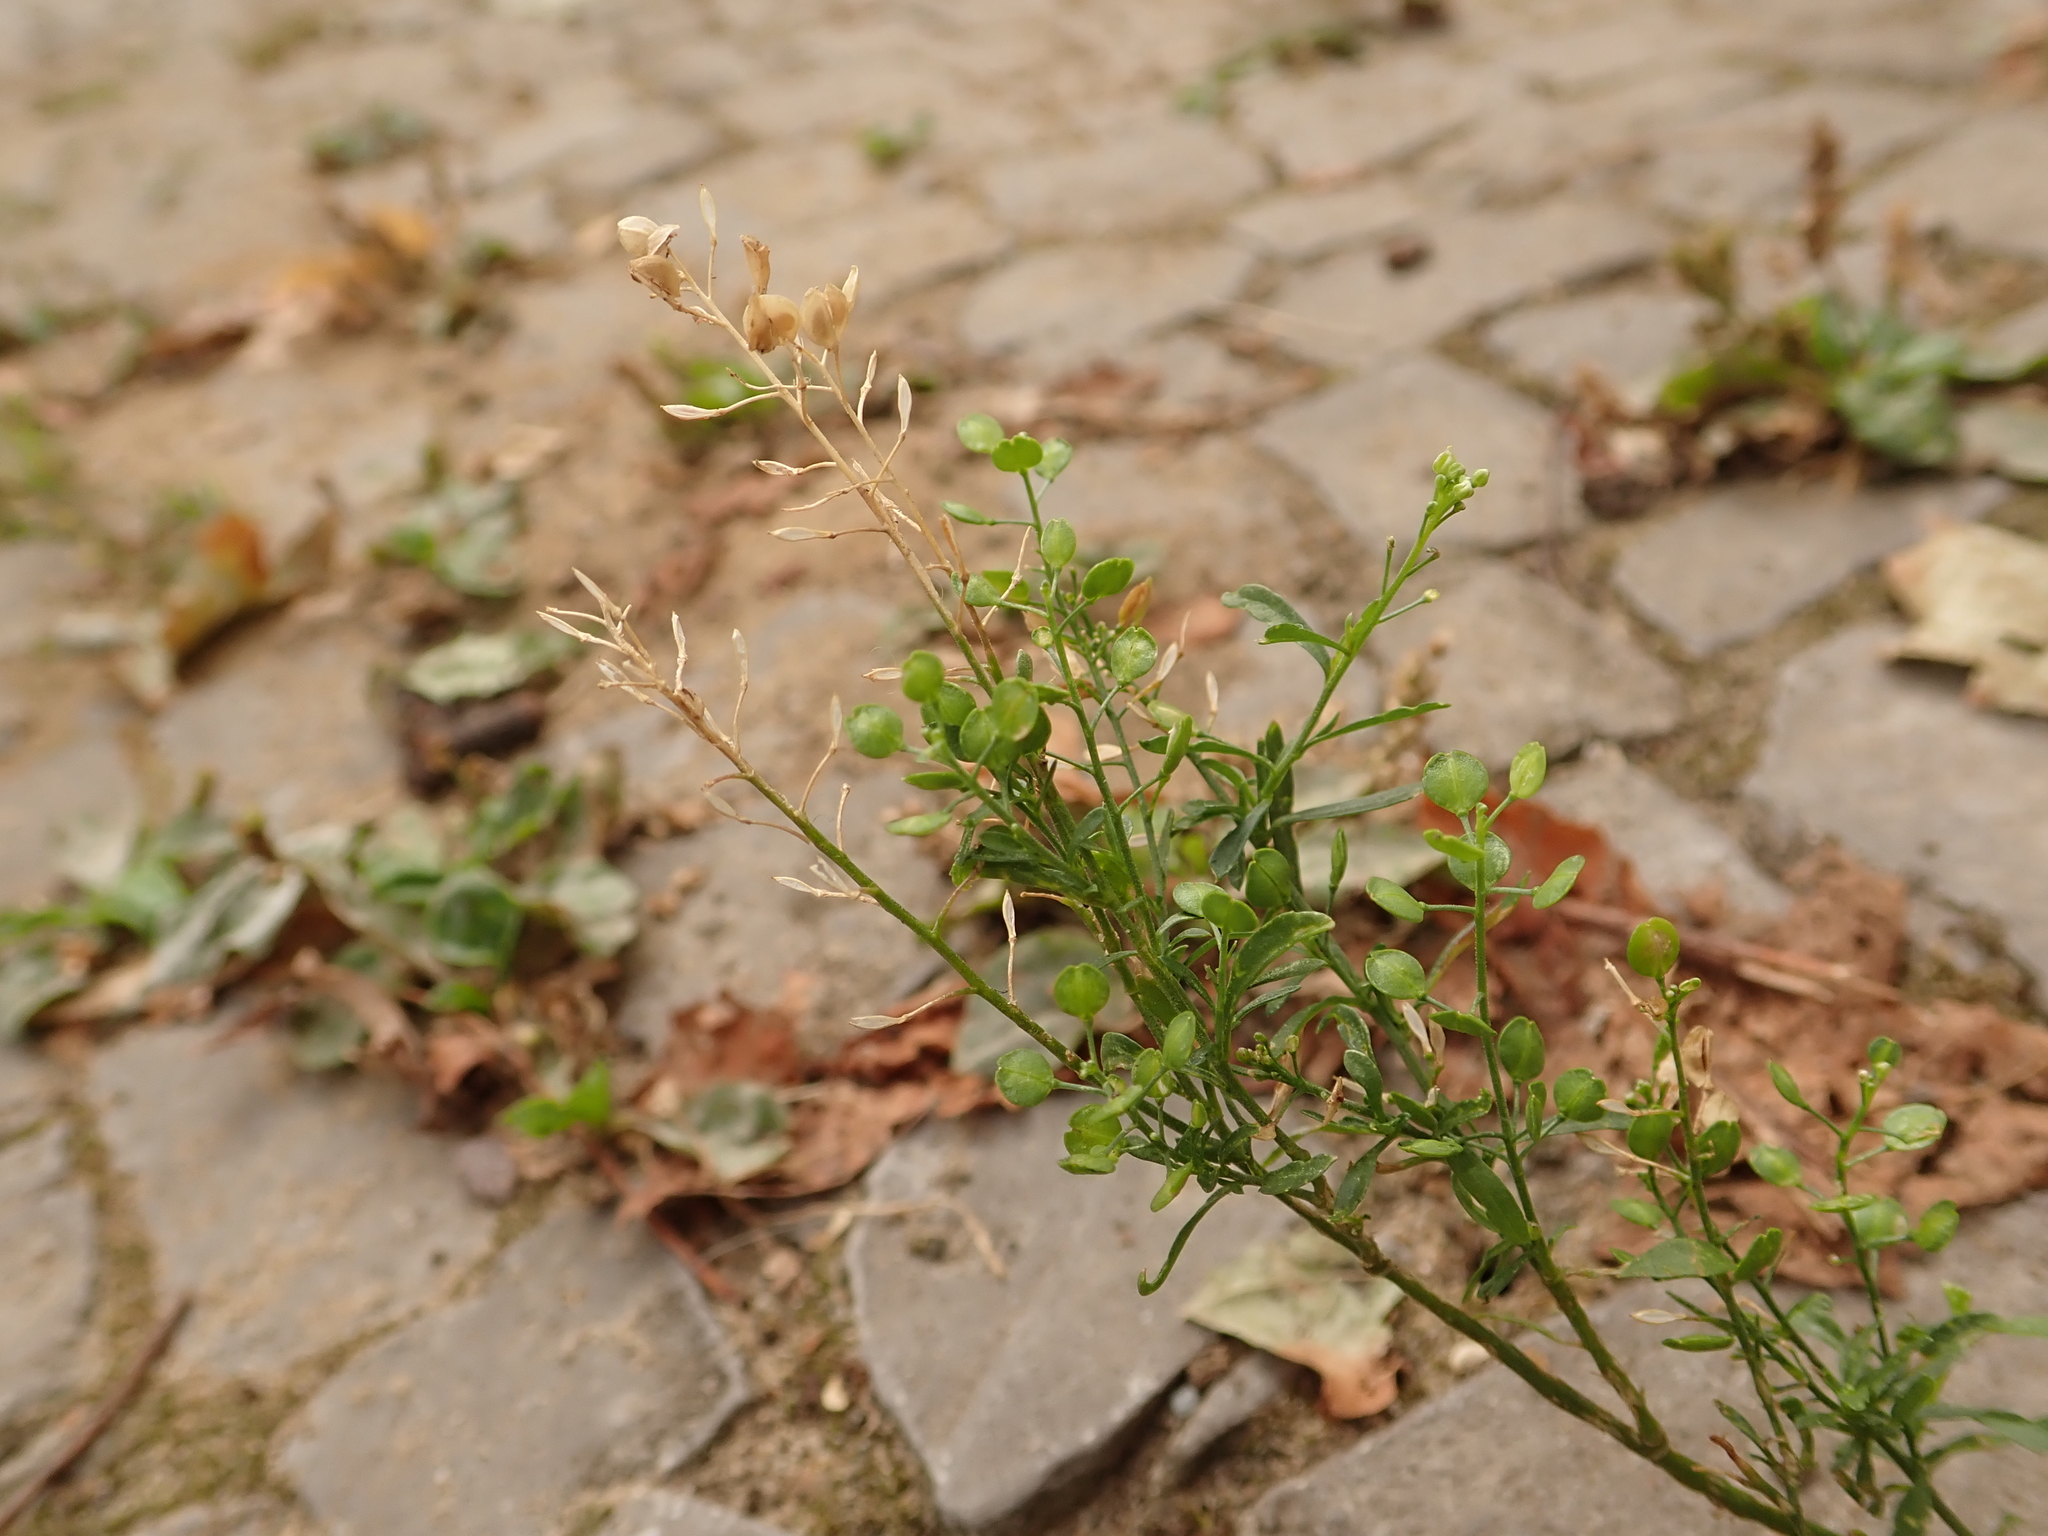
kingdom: Plantae
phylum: Tracheophyta
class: Magnoliopsida
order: Brassicales
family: Brassicaceae
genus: Lepidium
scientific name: Lepidium virginicum
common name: Least pepperwort
